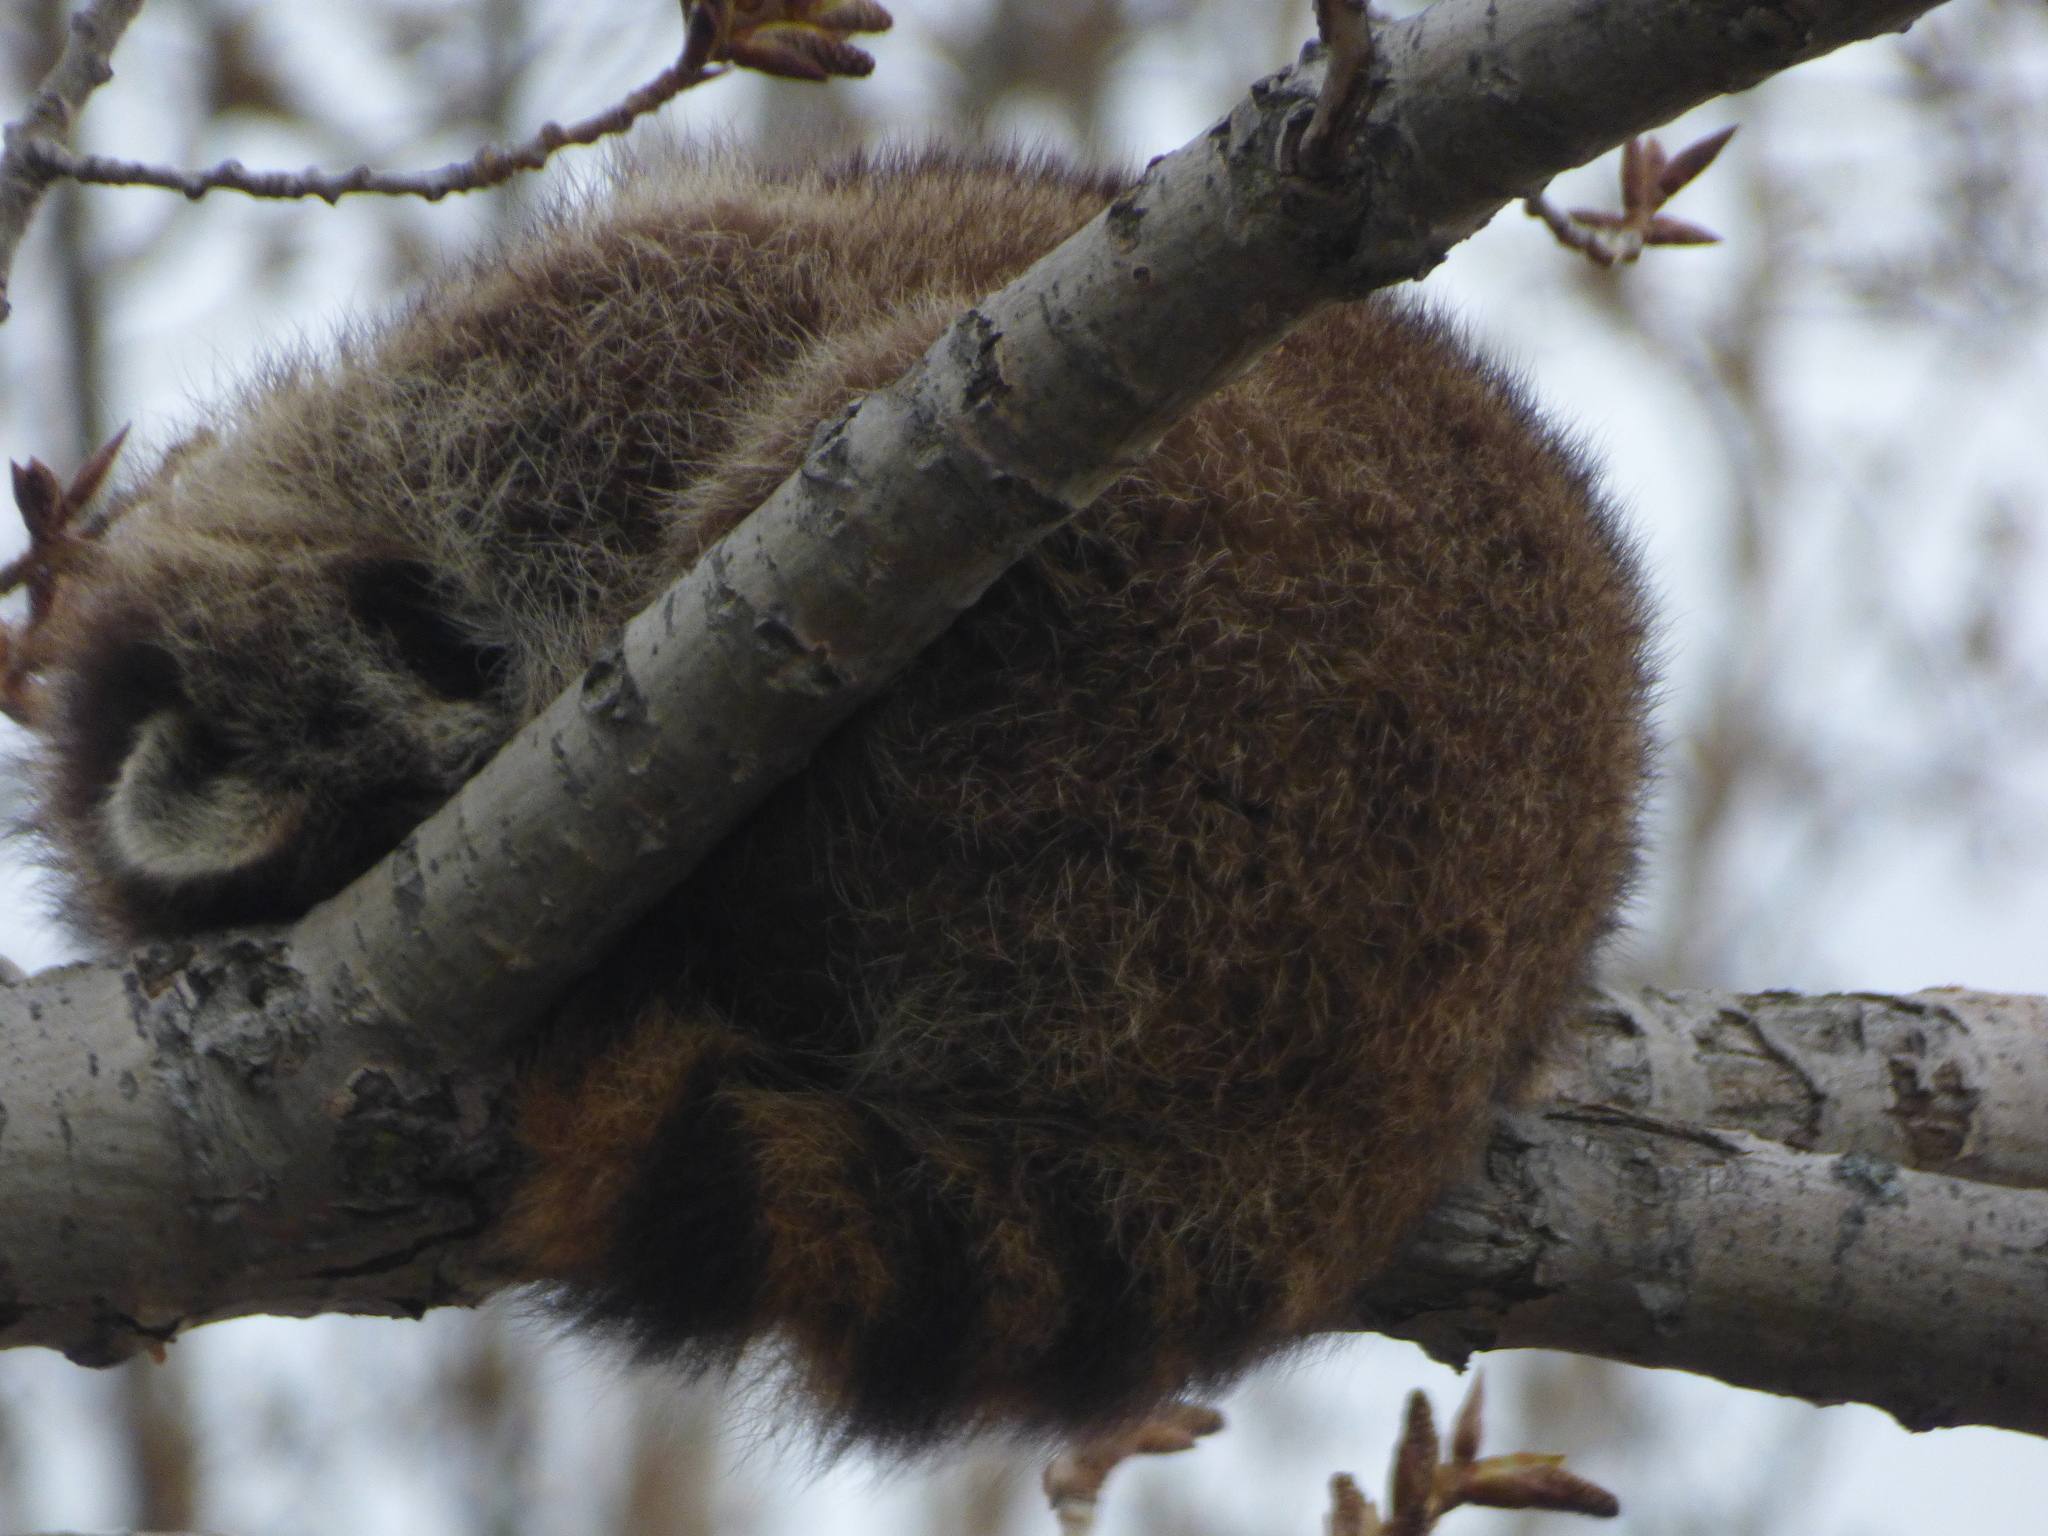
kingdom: Animalia
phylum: Chordata
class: Mammalia
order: Carnivora
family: Procyonidae
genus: Procyon
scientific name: Procyon lotor
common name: Raccoon
